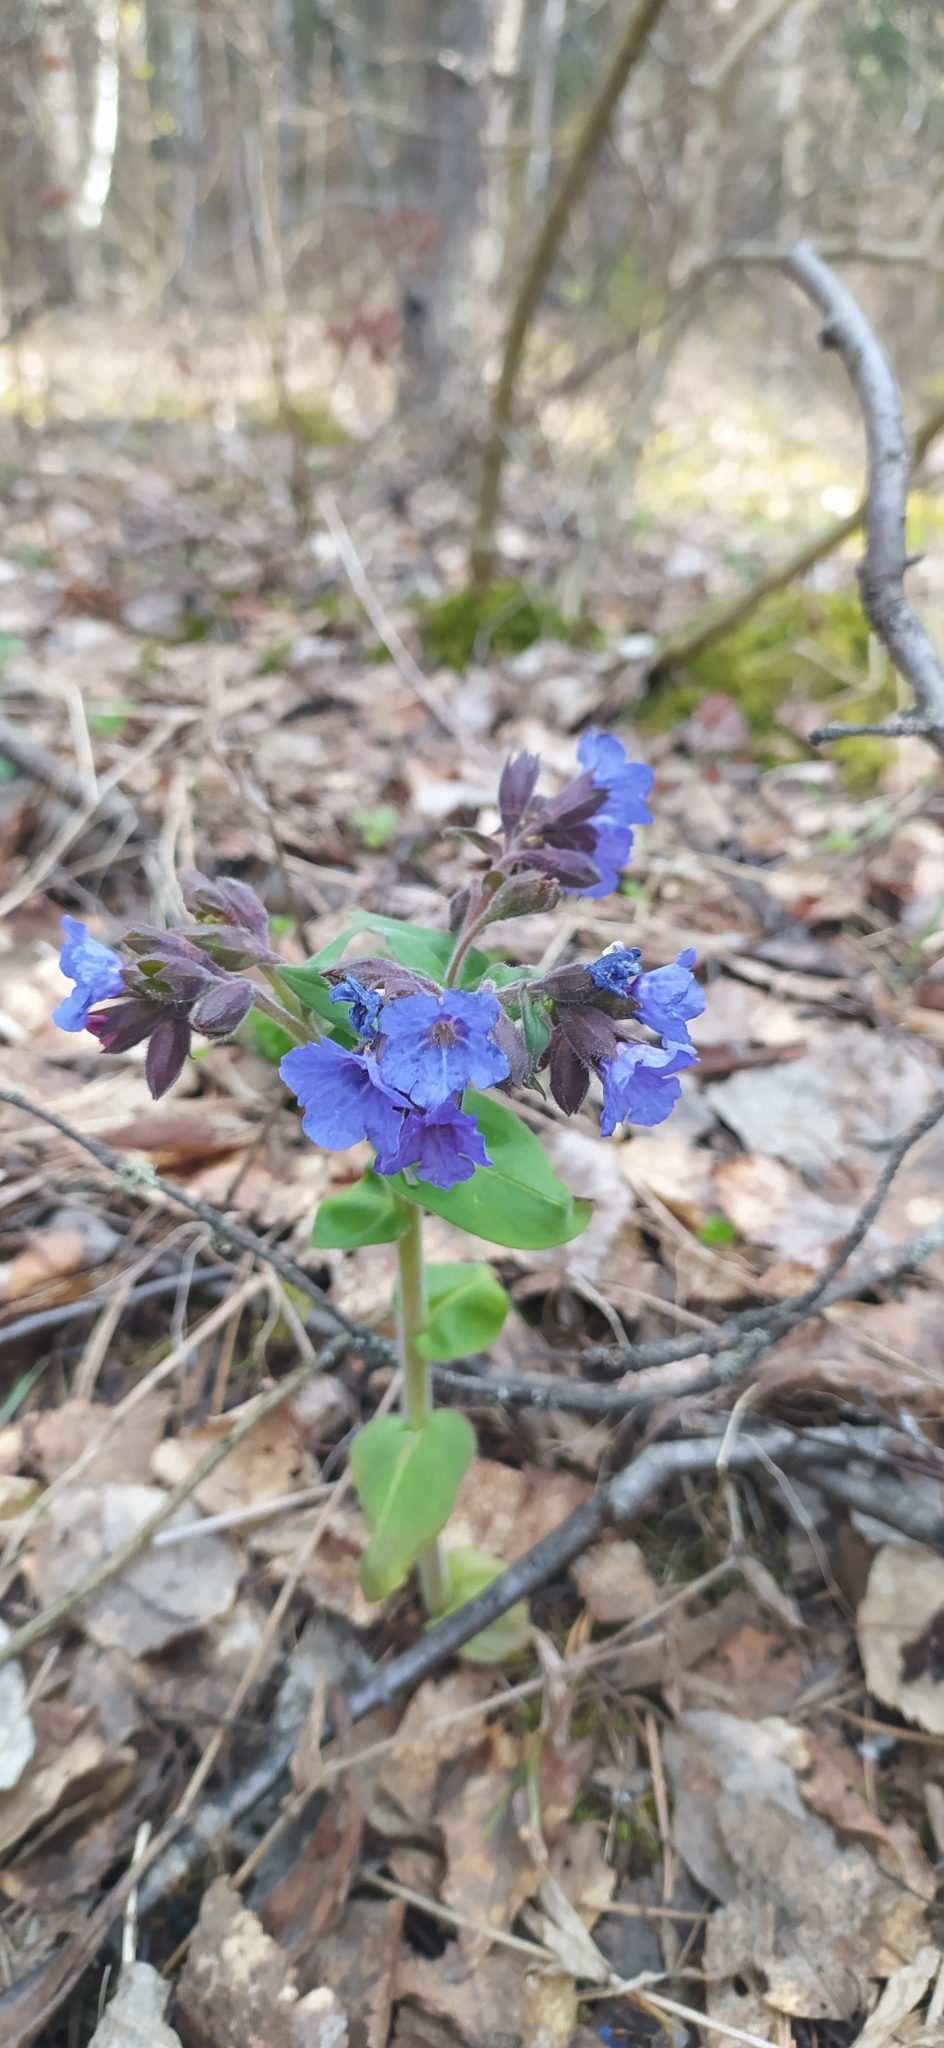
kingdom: Plantae
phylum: Tracheophyta
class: Magnoliopsida
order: Boraginales
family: Boraginaceae
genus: Pulmonaria
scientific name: Pulmonaria mollis
